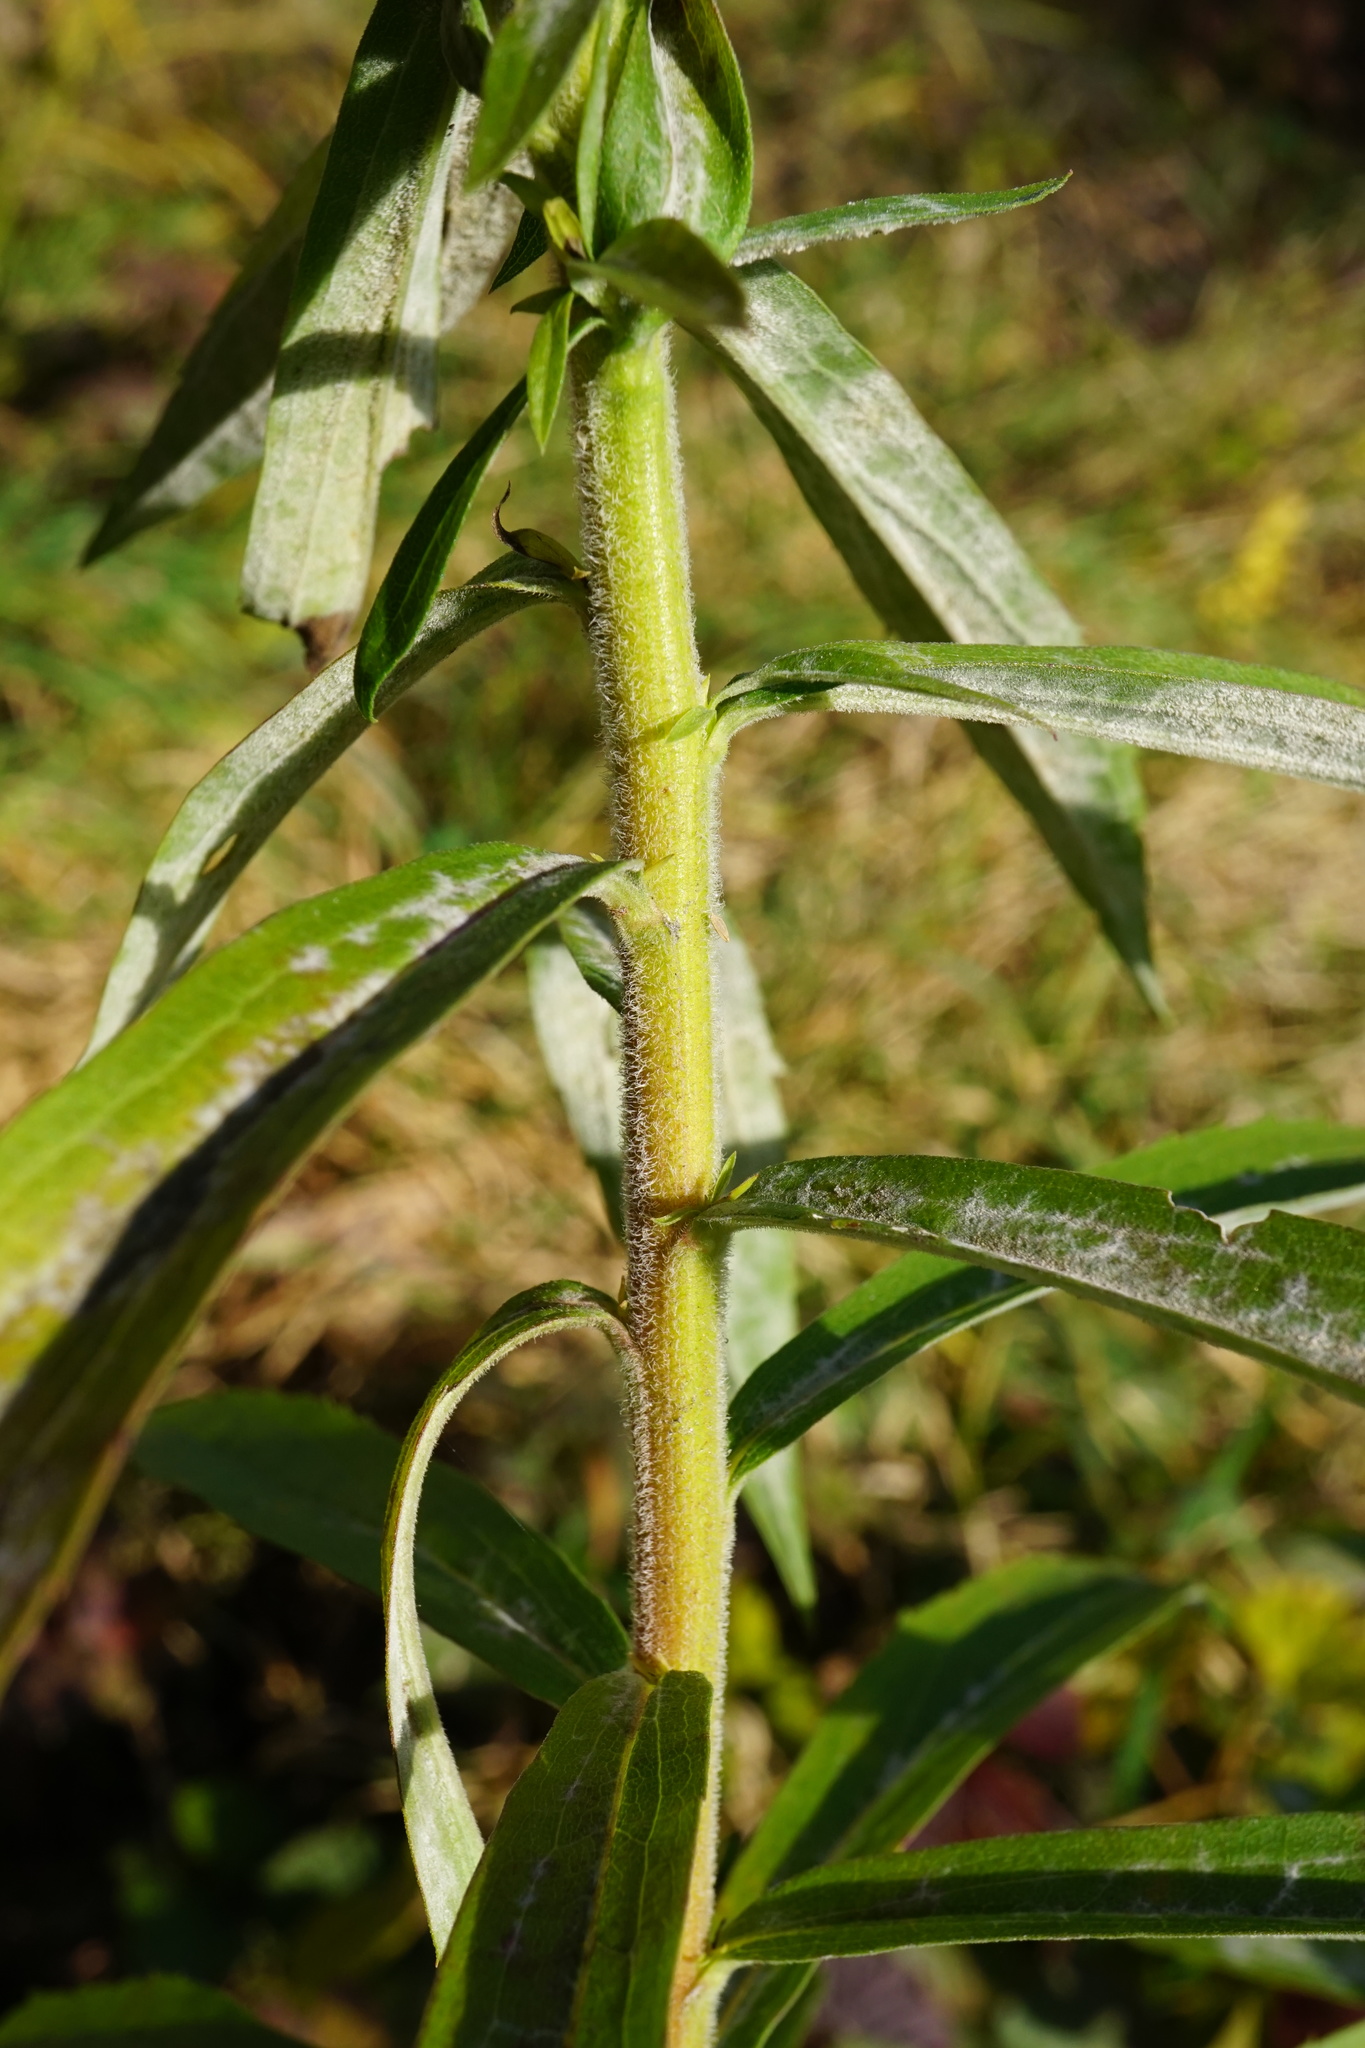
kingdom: Plantae
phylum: Tracheophyta
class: Magnoliopsida
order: Asterales
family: Asteraceae
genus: Solidago
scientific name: Solidago canadensis
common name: Canada goldenrod
